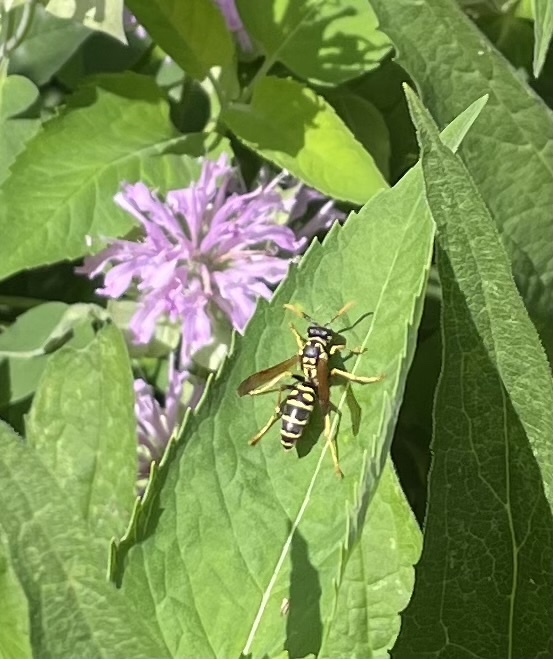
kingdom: Animalia
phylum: Arthropoda
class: Insecta
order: Hymenoptera
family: Eumenidae
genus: Polistes
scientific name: Polistes dominula
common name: Paper wasp
